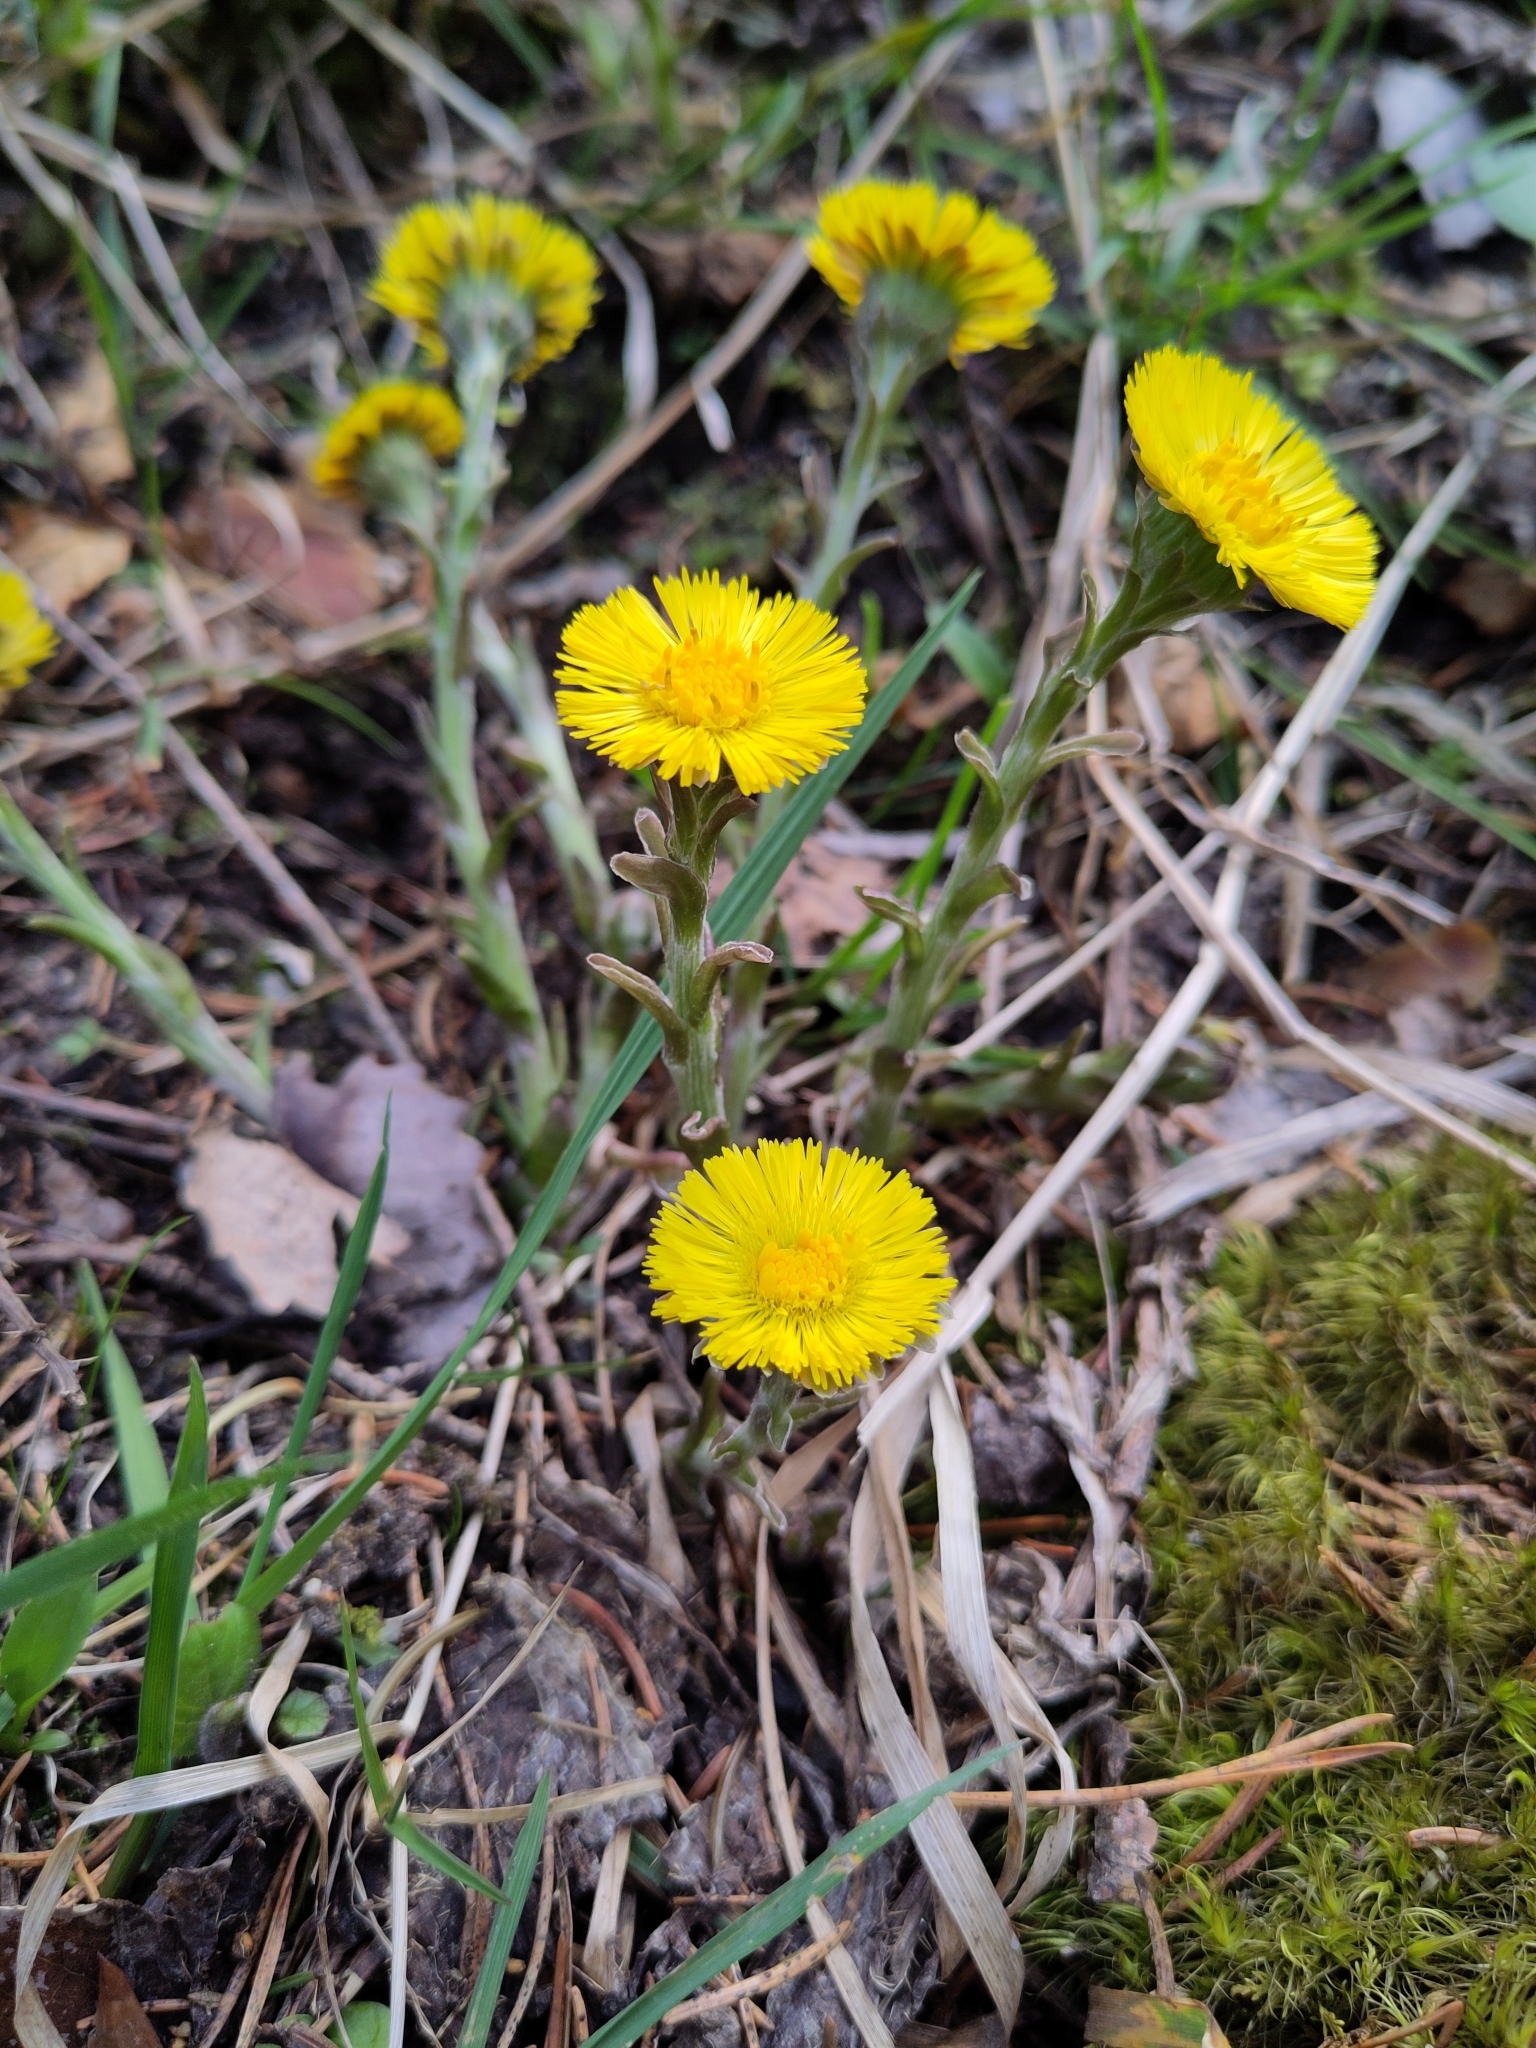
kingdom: Plantae
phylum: Tracheophyta
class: Magnoliopsida
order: Asterales
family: Asteraceae
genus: Tussilago
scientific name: Tussilago farfara
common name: Coltsfoot
